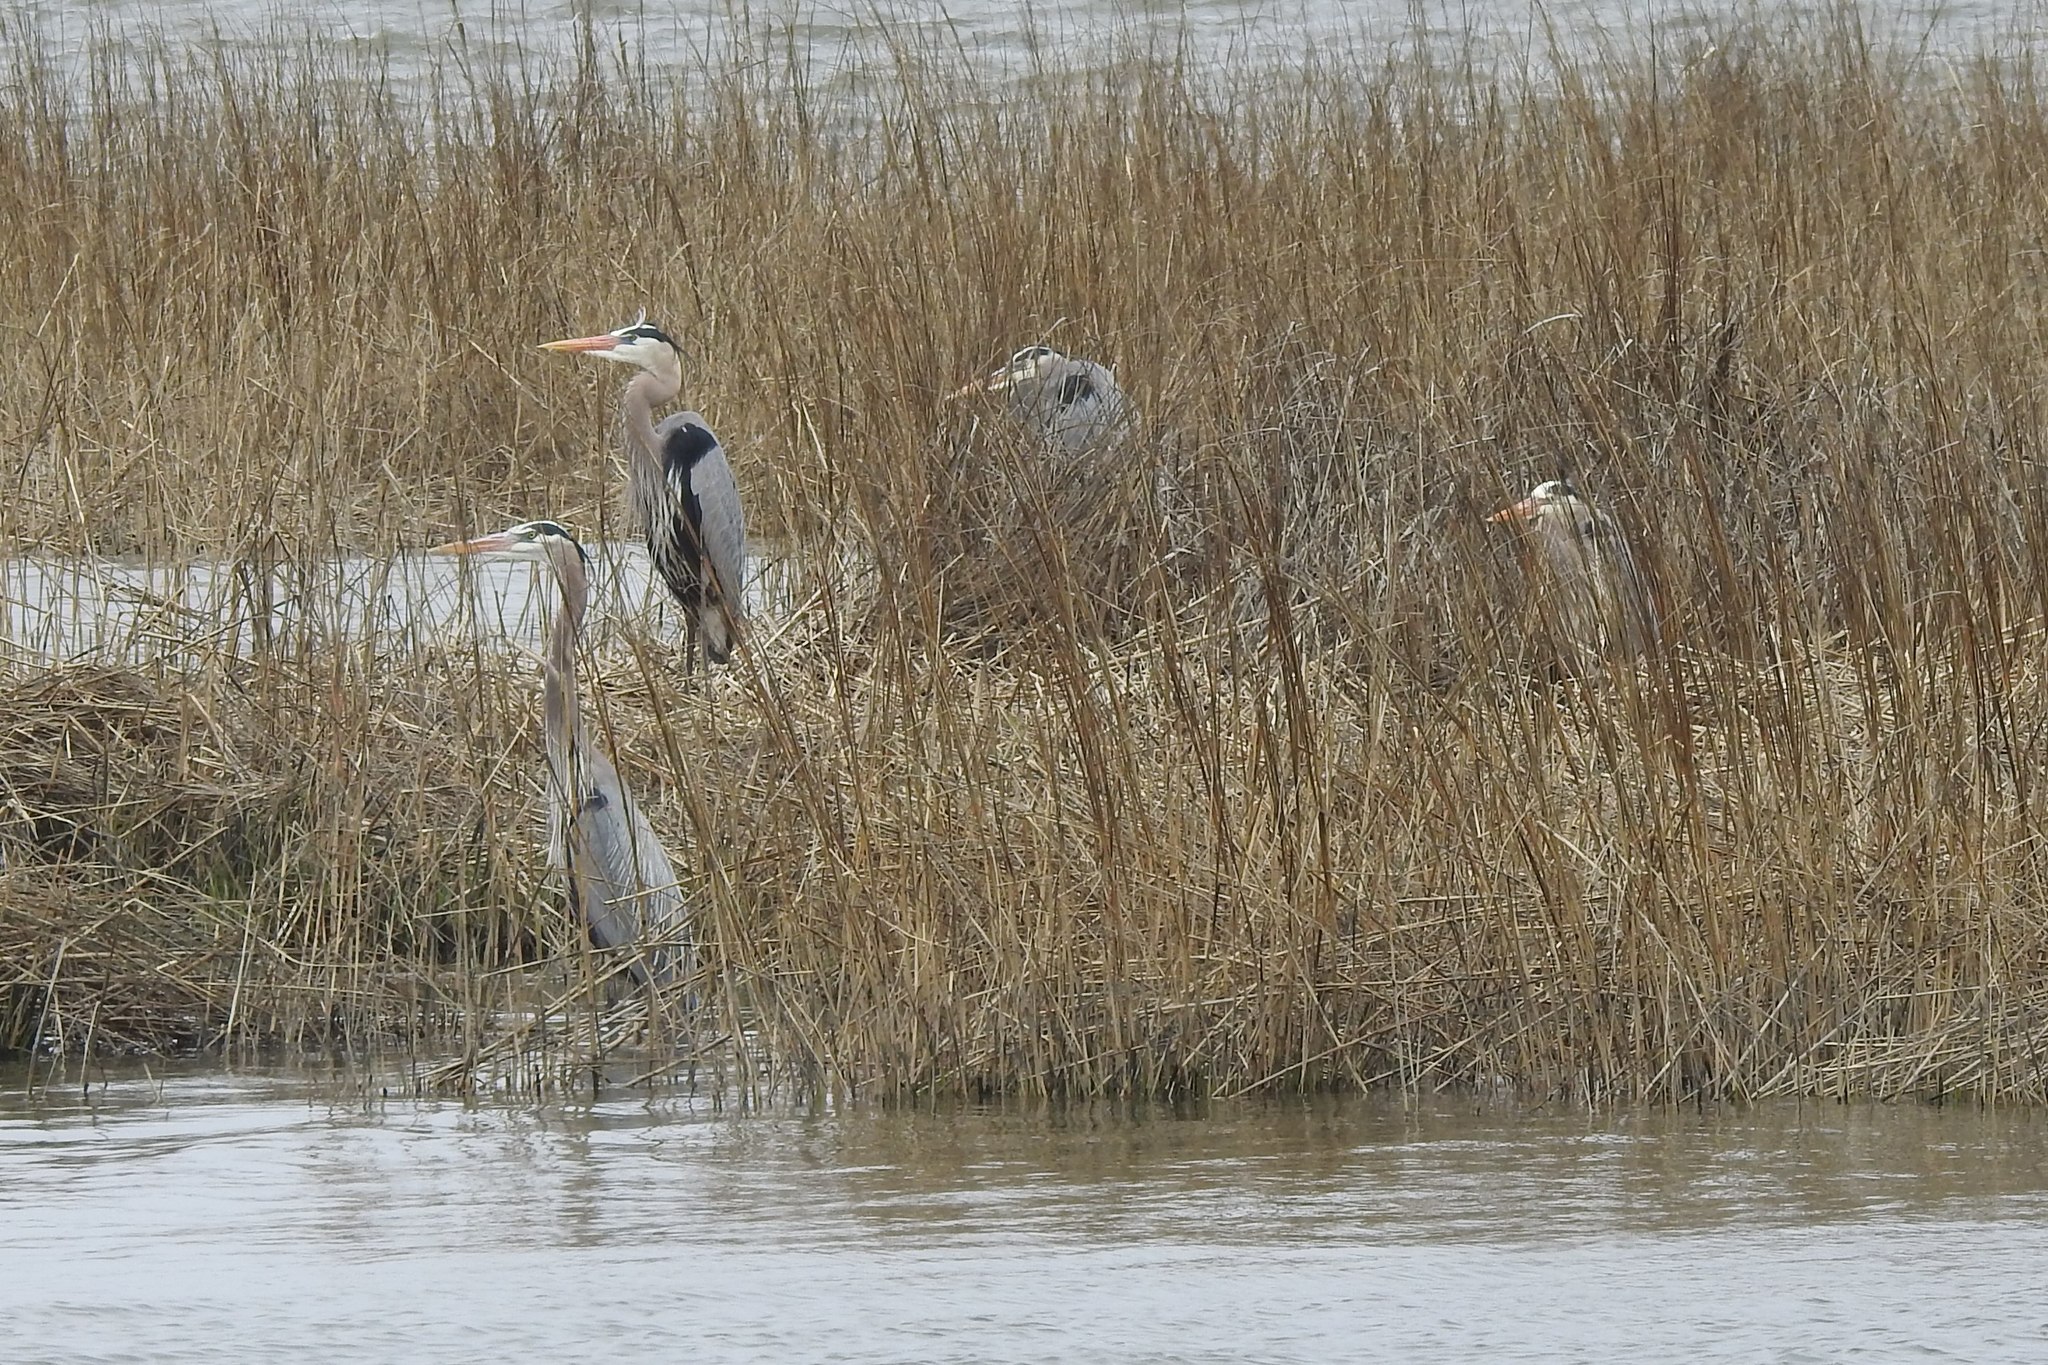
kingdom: Animalia
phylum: Chordata
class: Aves
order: Pelecaniformes
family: Ardeidae
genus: Ardea
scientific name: Ardea herodias
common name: Great blue heron
